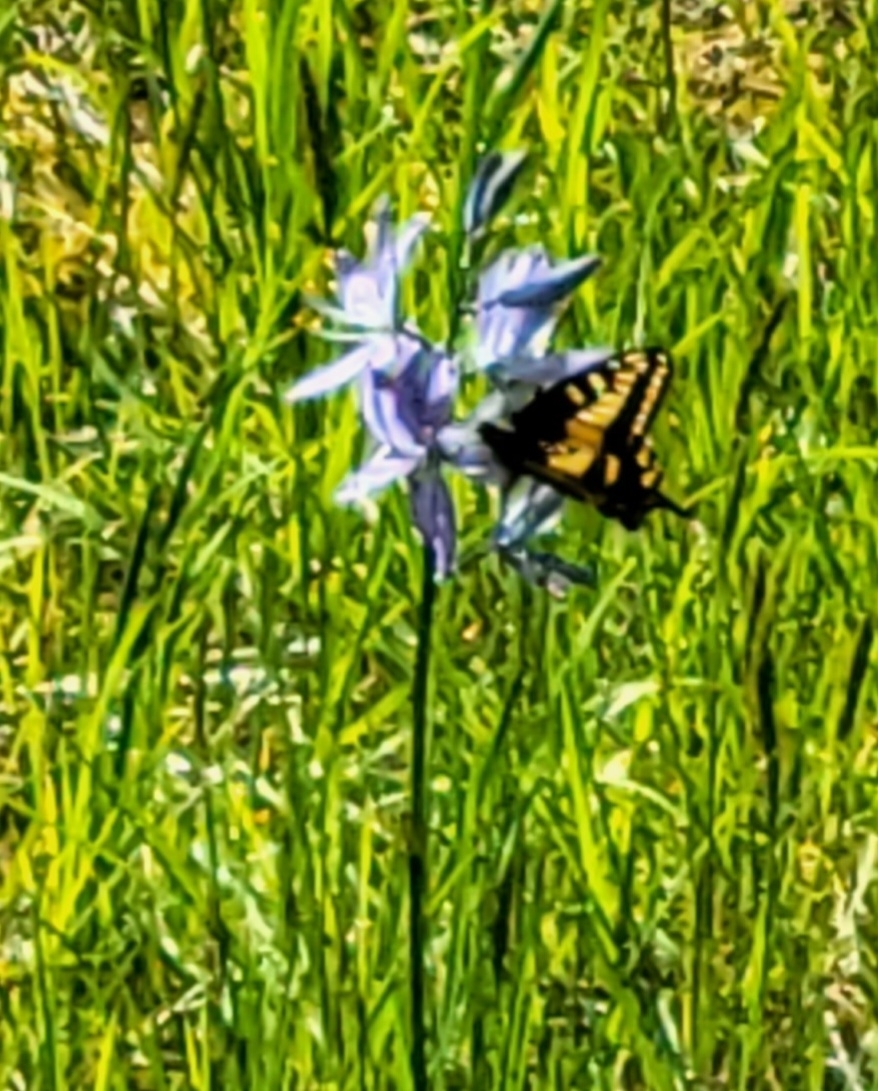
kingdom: Animalia
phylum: Arthropoda
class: Insecta
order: Lepidoptera
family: Papilionidae
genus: Papilio
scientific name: Papilio zelicaon
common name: Anise swallowtail
